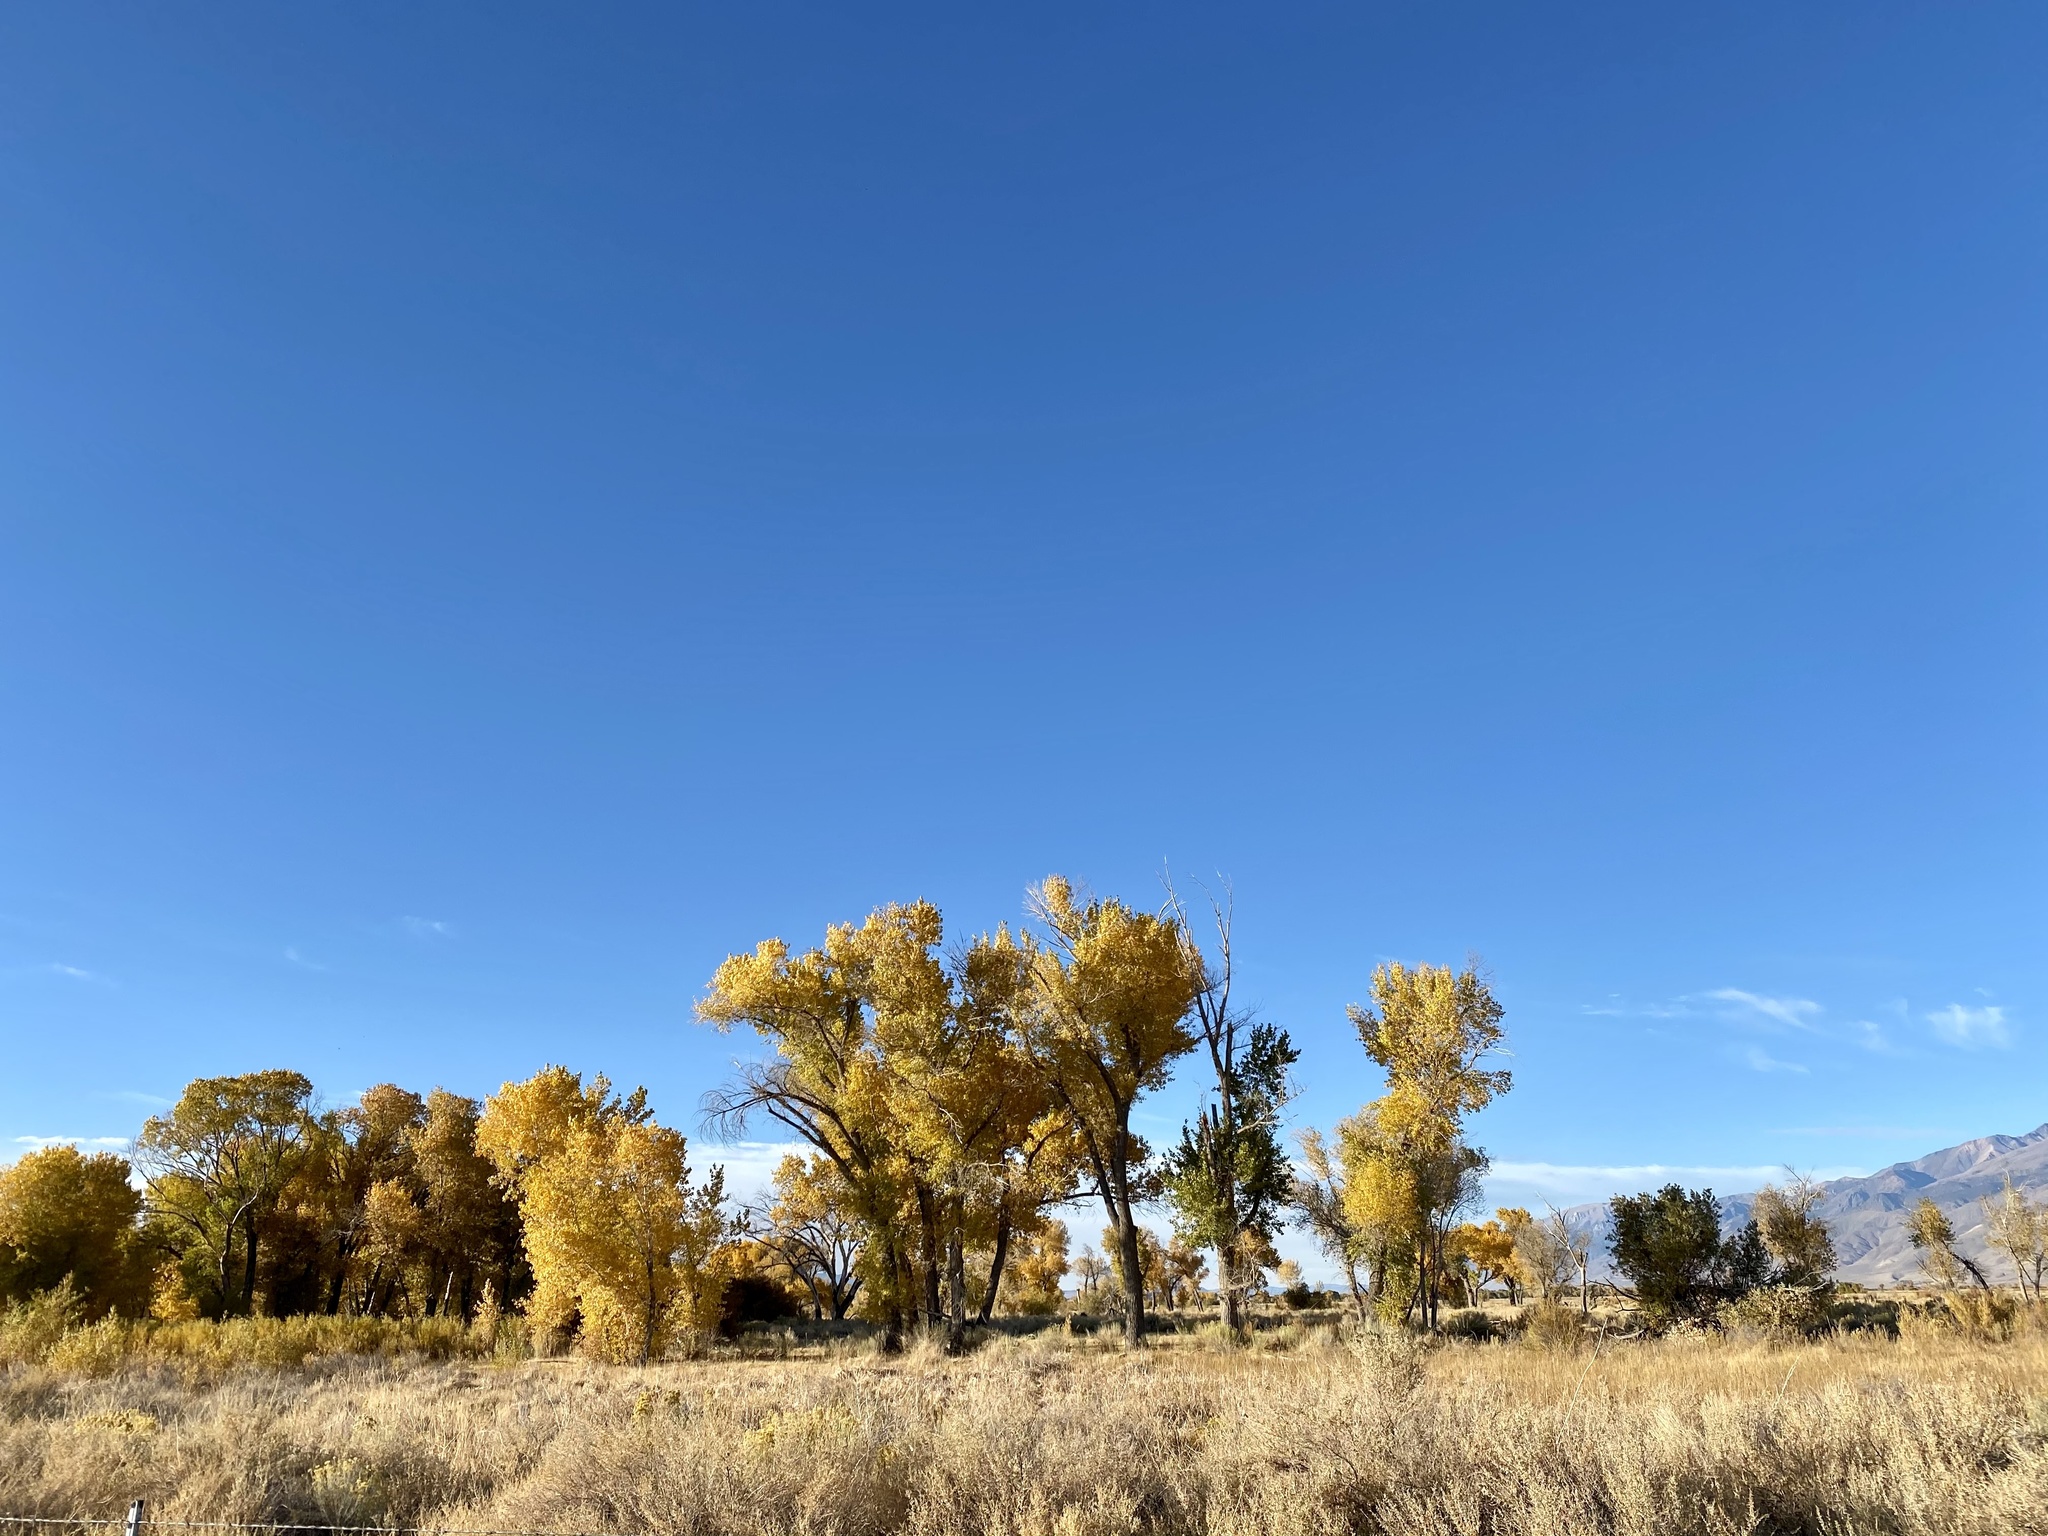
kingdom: Plantae
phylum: Tracheophyta
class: Magnoliopsida
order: Malpighiales
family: Salicaceae
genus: Populus
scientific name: Populus fremontii
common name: Fremont's cottonwood
